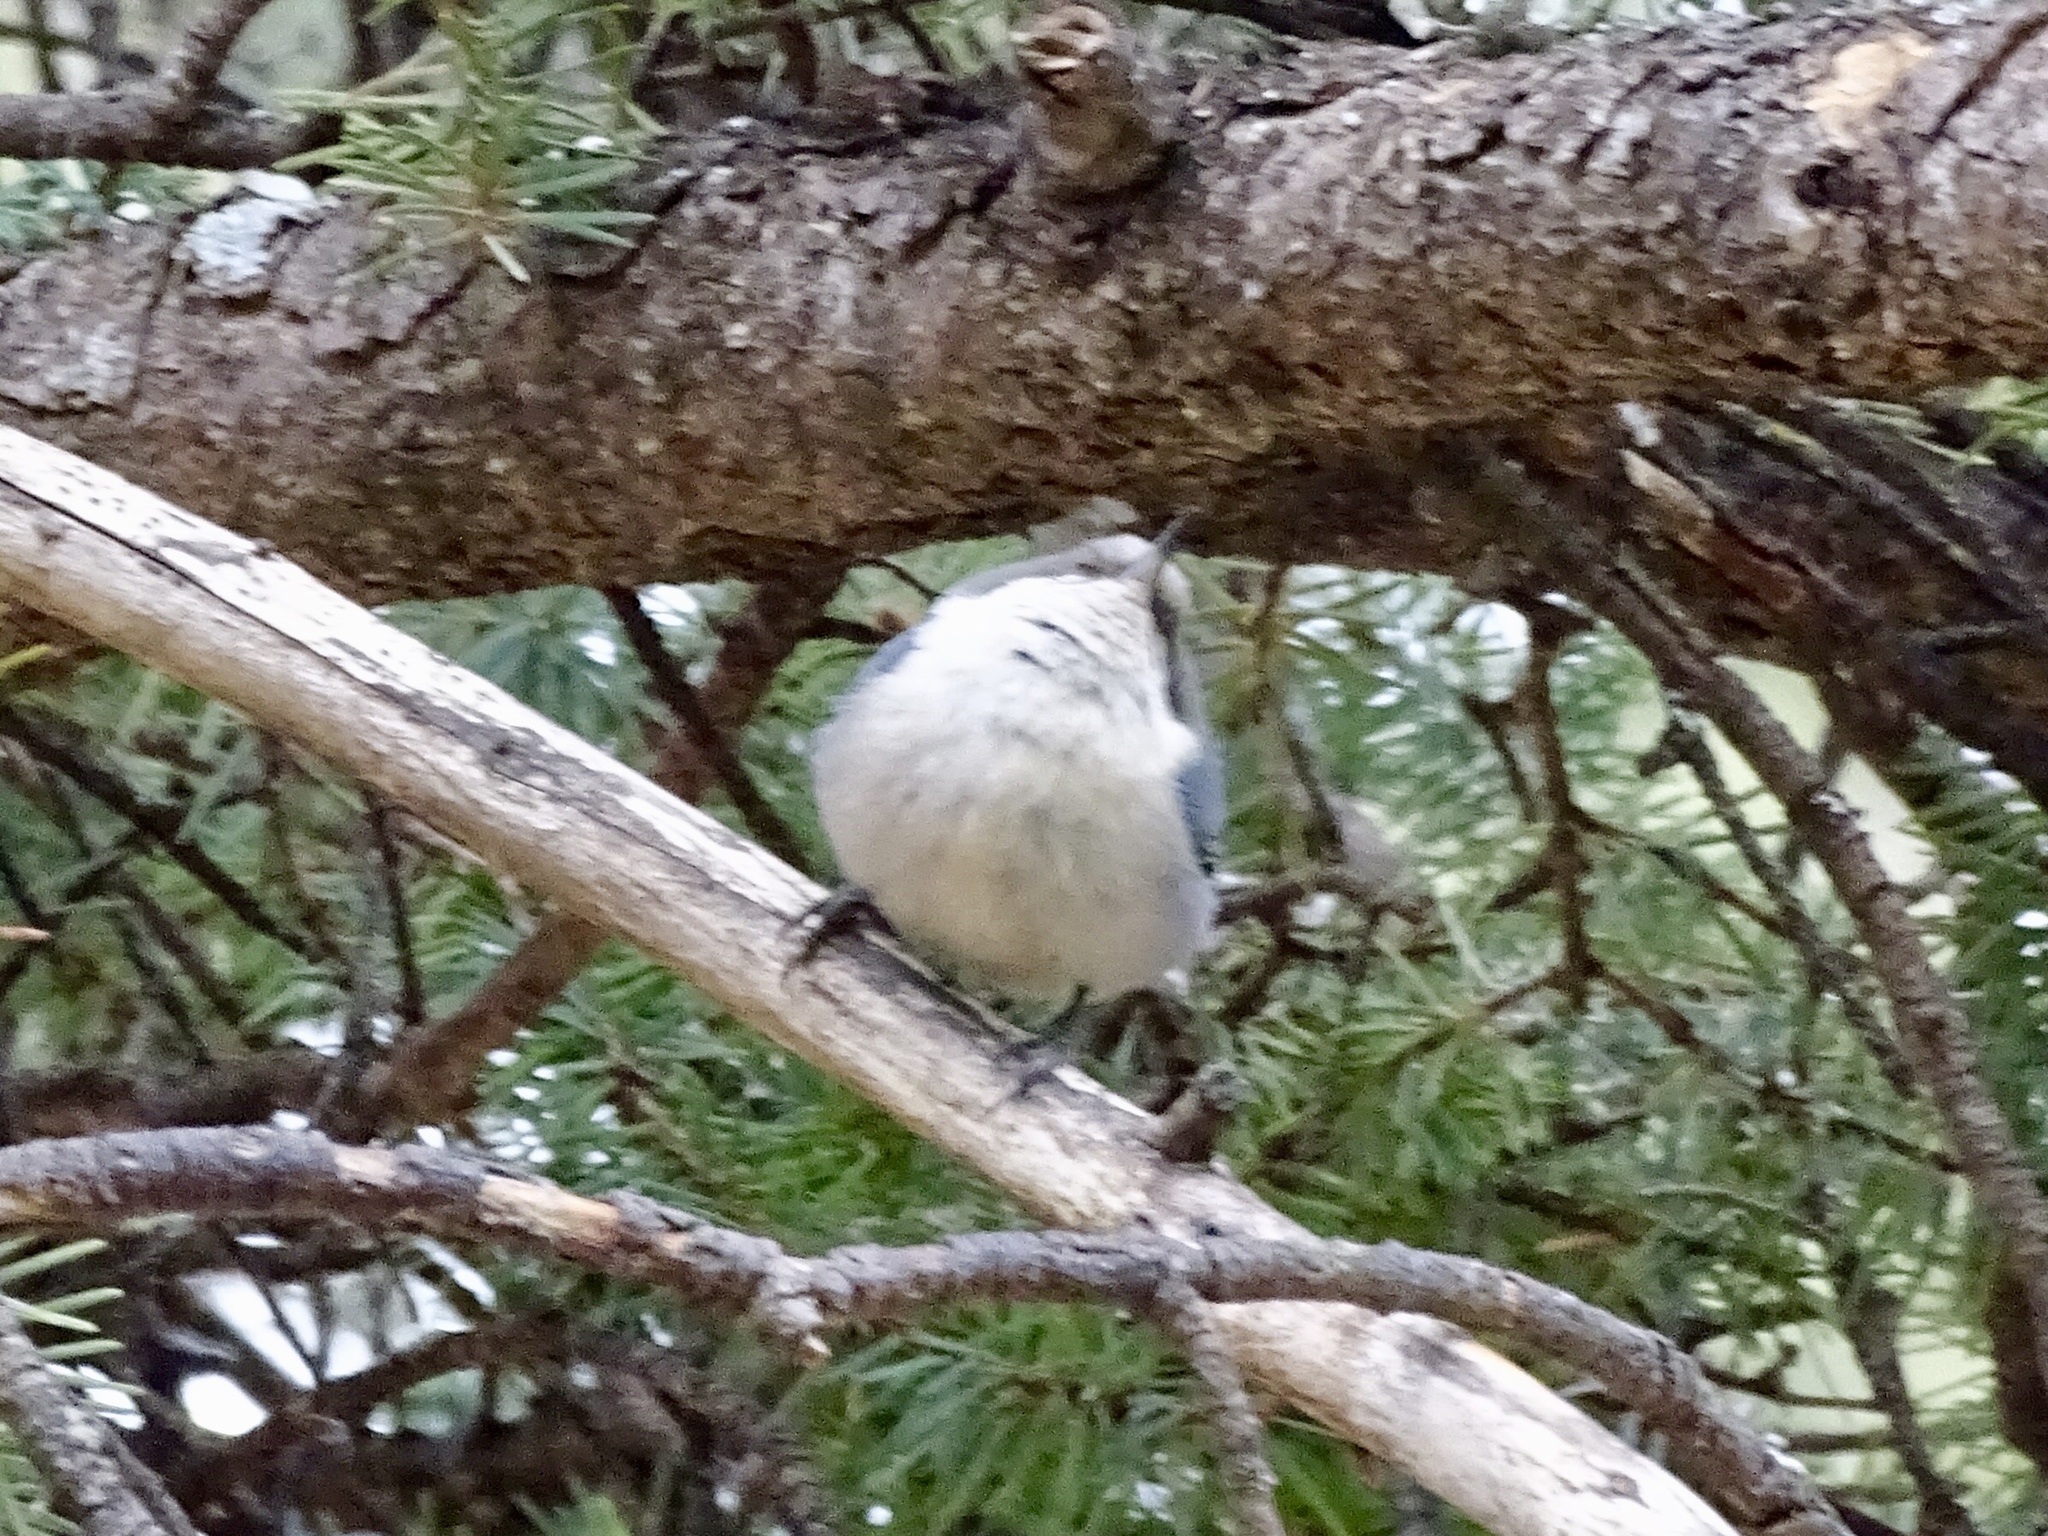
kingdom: Animalia
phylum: Chordata
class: Aves
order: Passeriformes
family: Sittidae
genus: Sitta
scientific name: Sitta pygmaea
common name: Pygmy nuthatch
